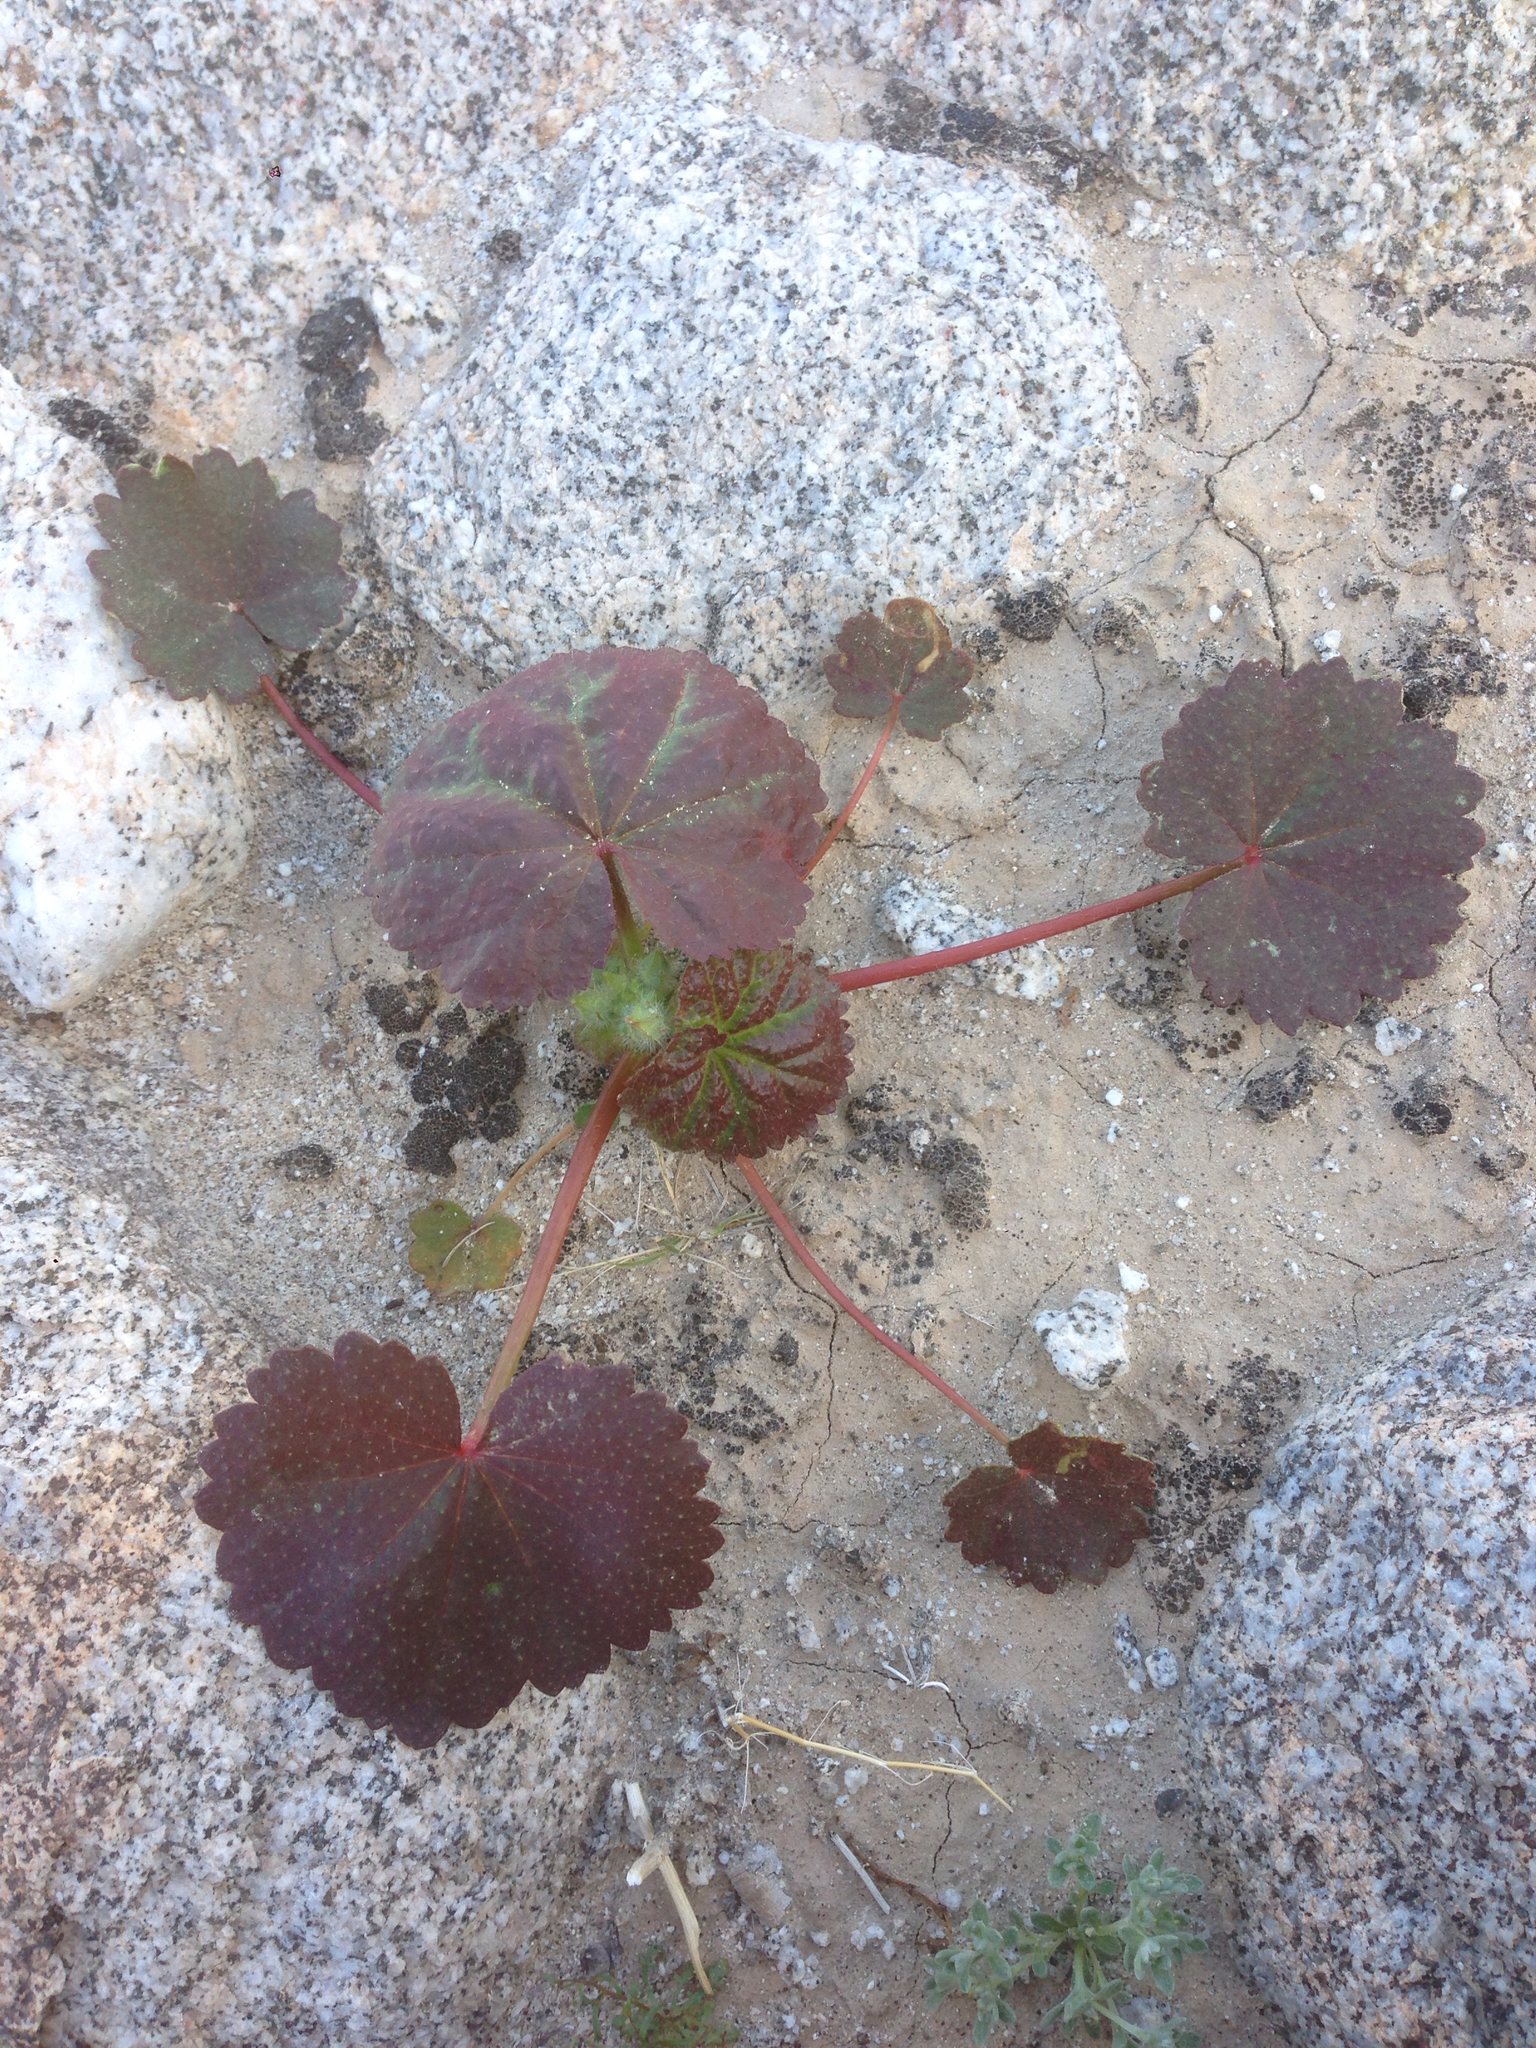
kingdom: Plantae
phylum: Tracheophyta
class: Magnoliopsida
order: Malvales
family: Malvaceae
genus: Eremalche
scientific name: Eremalche rotundifolia
